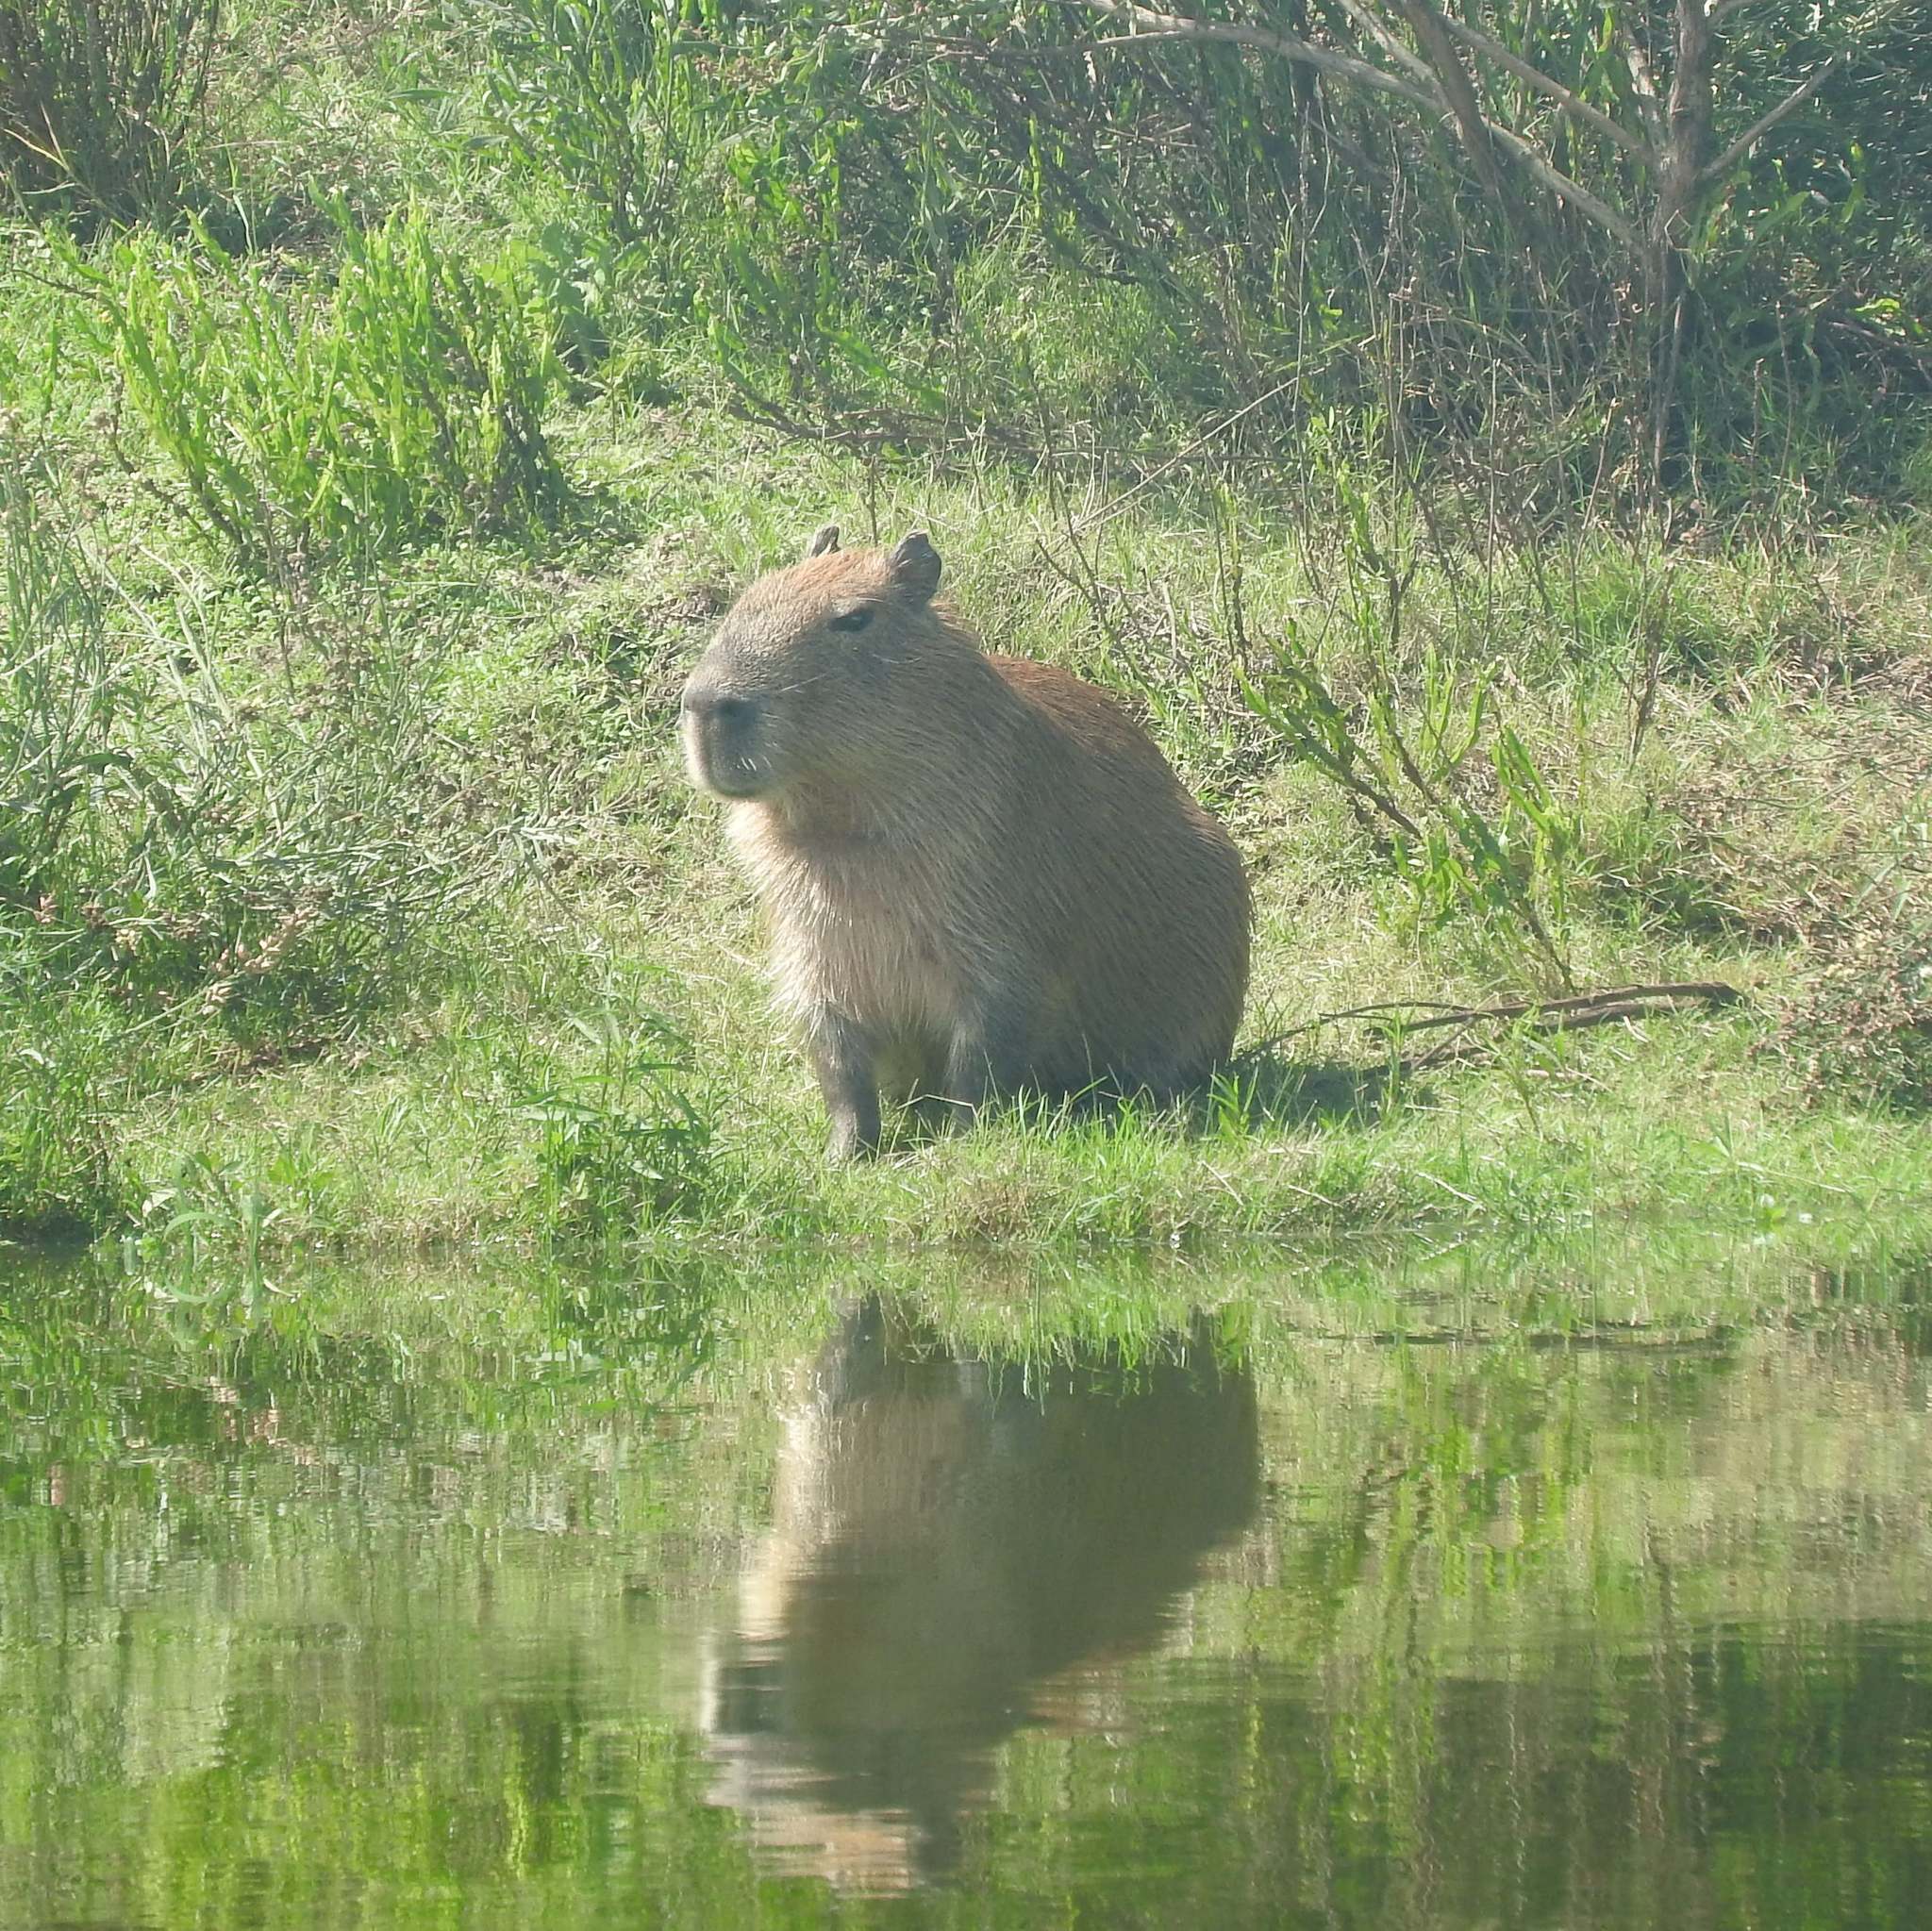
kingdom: Animalia
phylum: Chordata
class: Mammalia
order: Rodentia
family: Caviidae
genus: Hydrochoerus
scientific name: Hydrochoerus hydrochaeris
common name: Capybara
